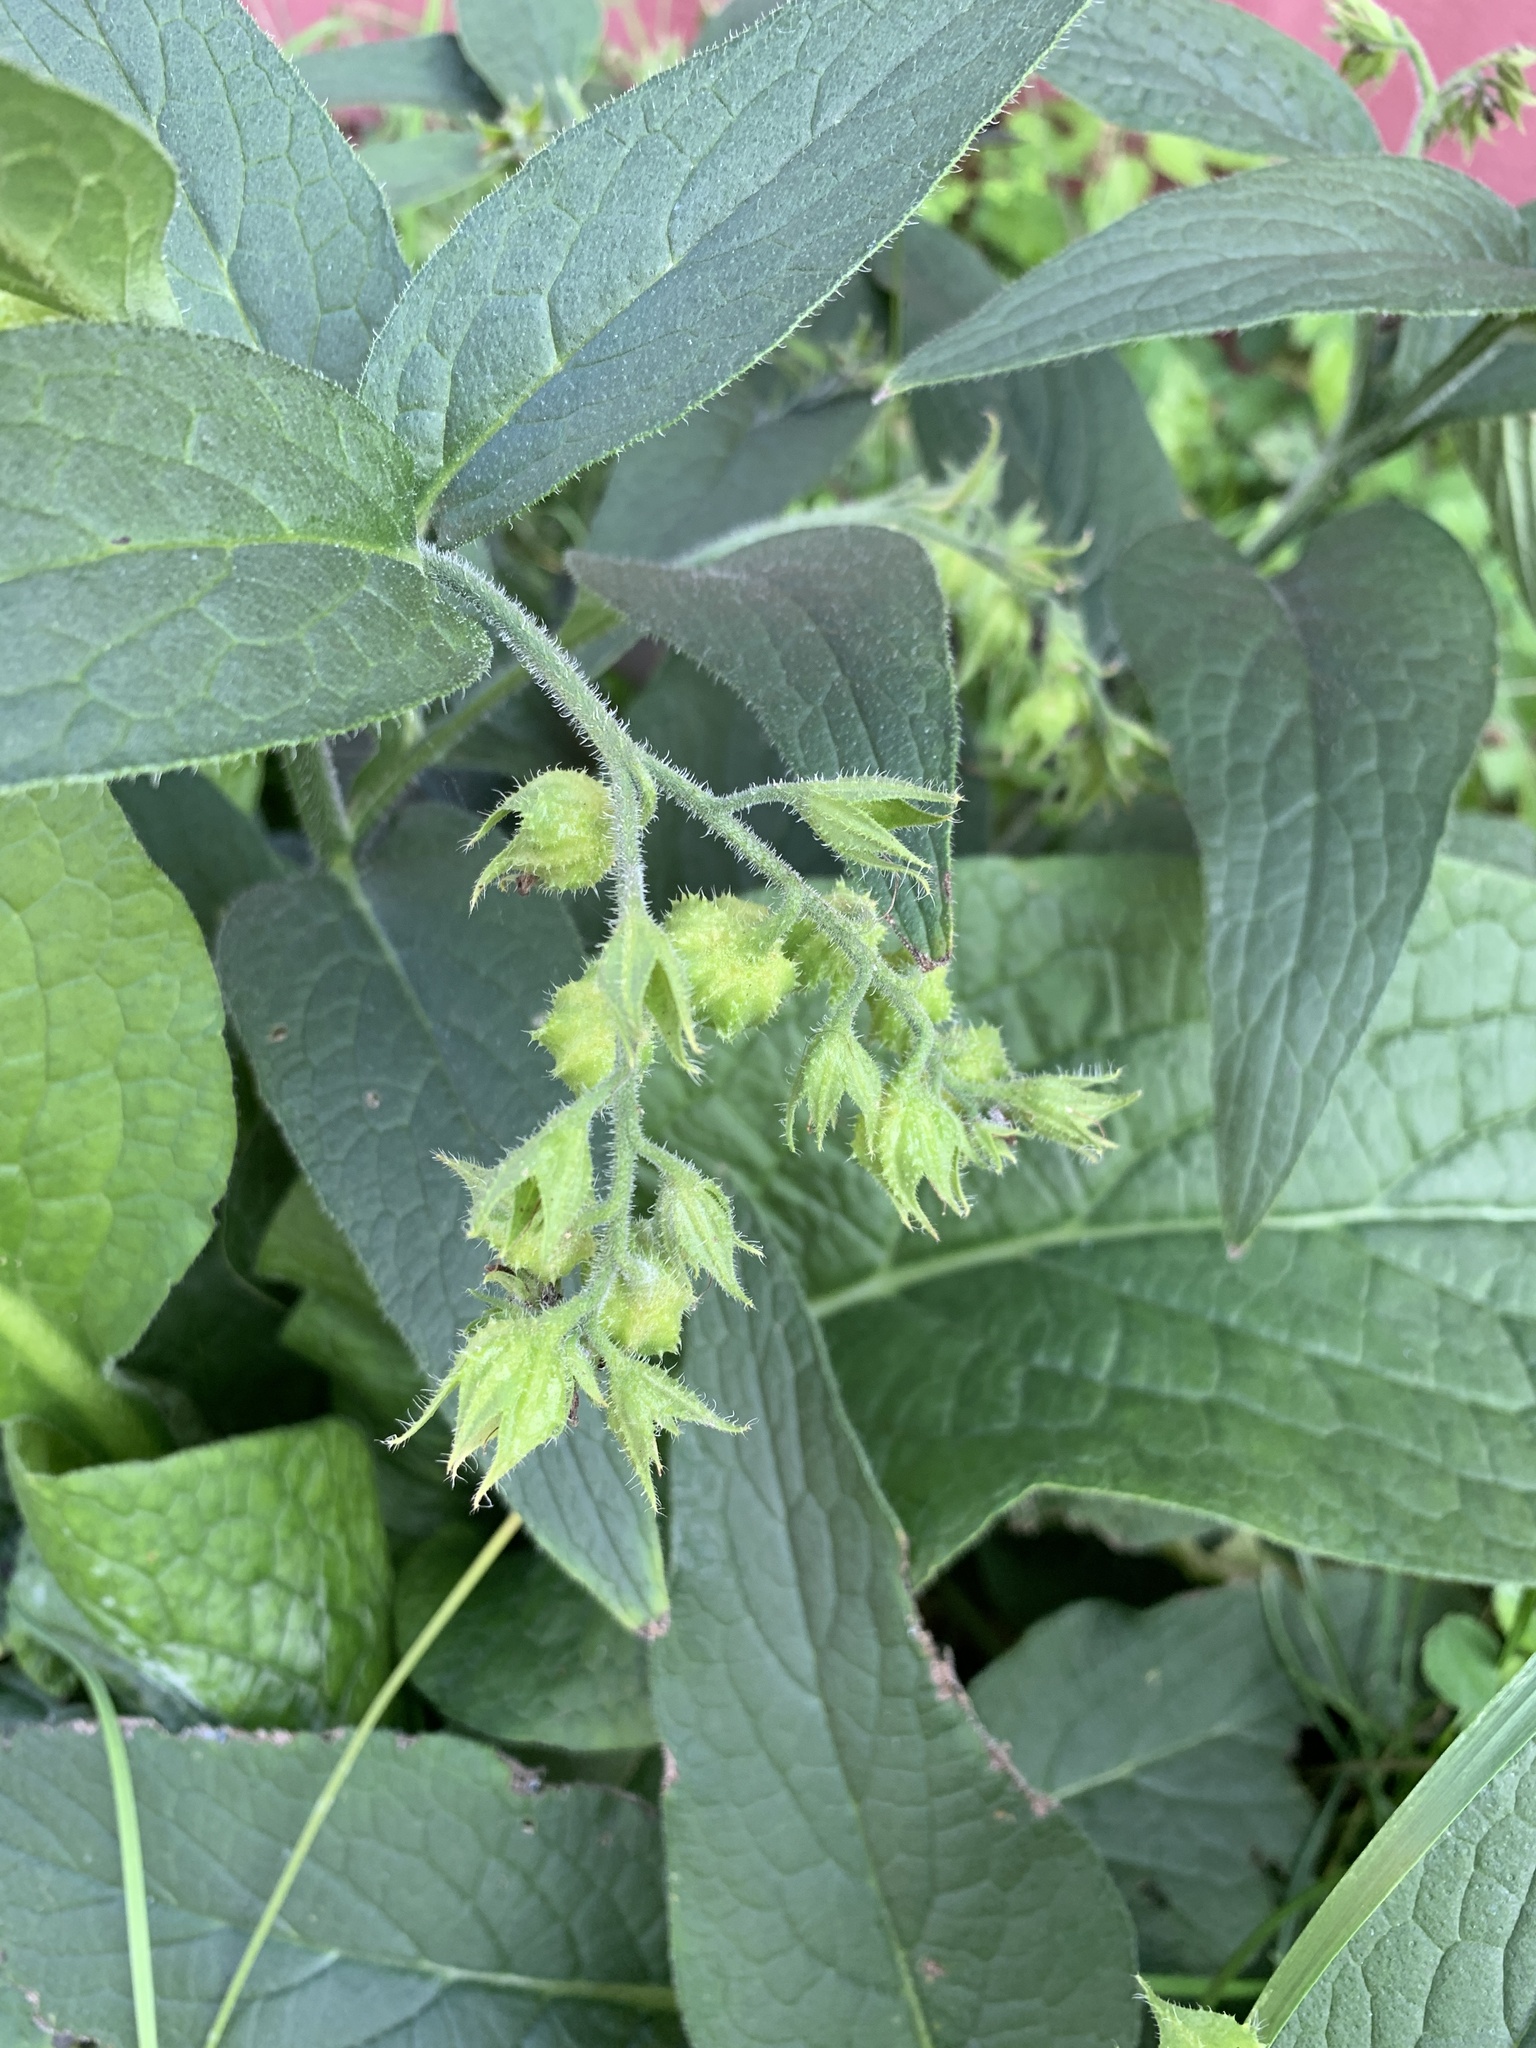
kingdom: Plantae
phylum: Tracheophyta
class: Magnoliopsida
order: Boraginales
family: Boraginaceae
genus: Symphytum
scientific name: Symphytum officinale
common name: Common comfrey
